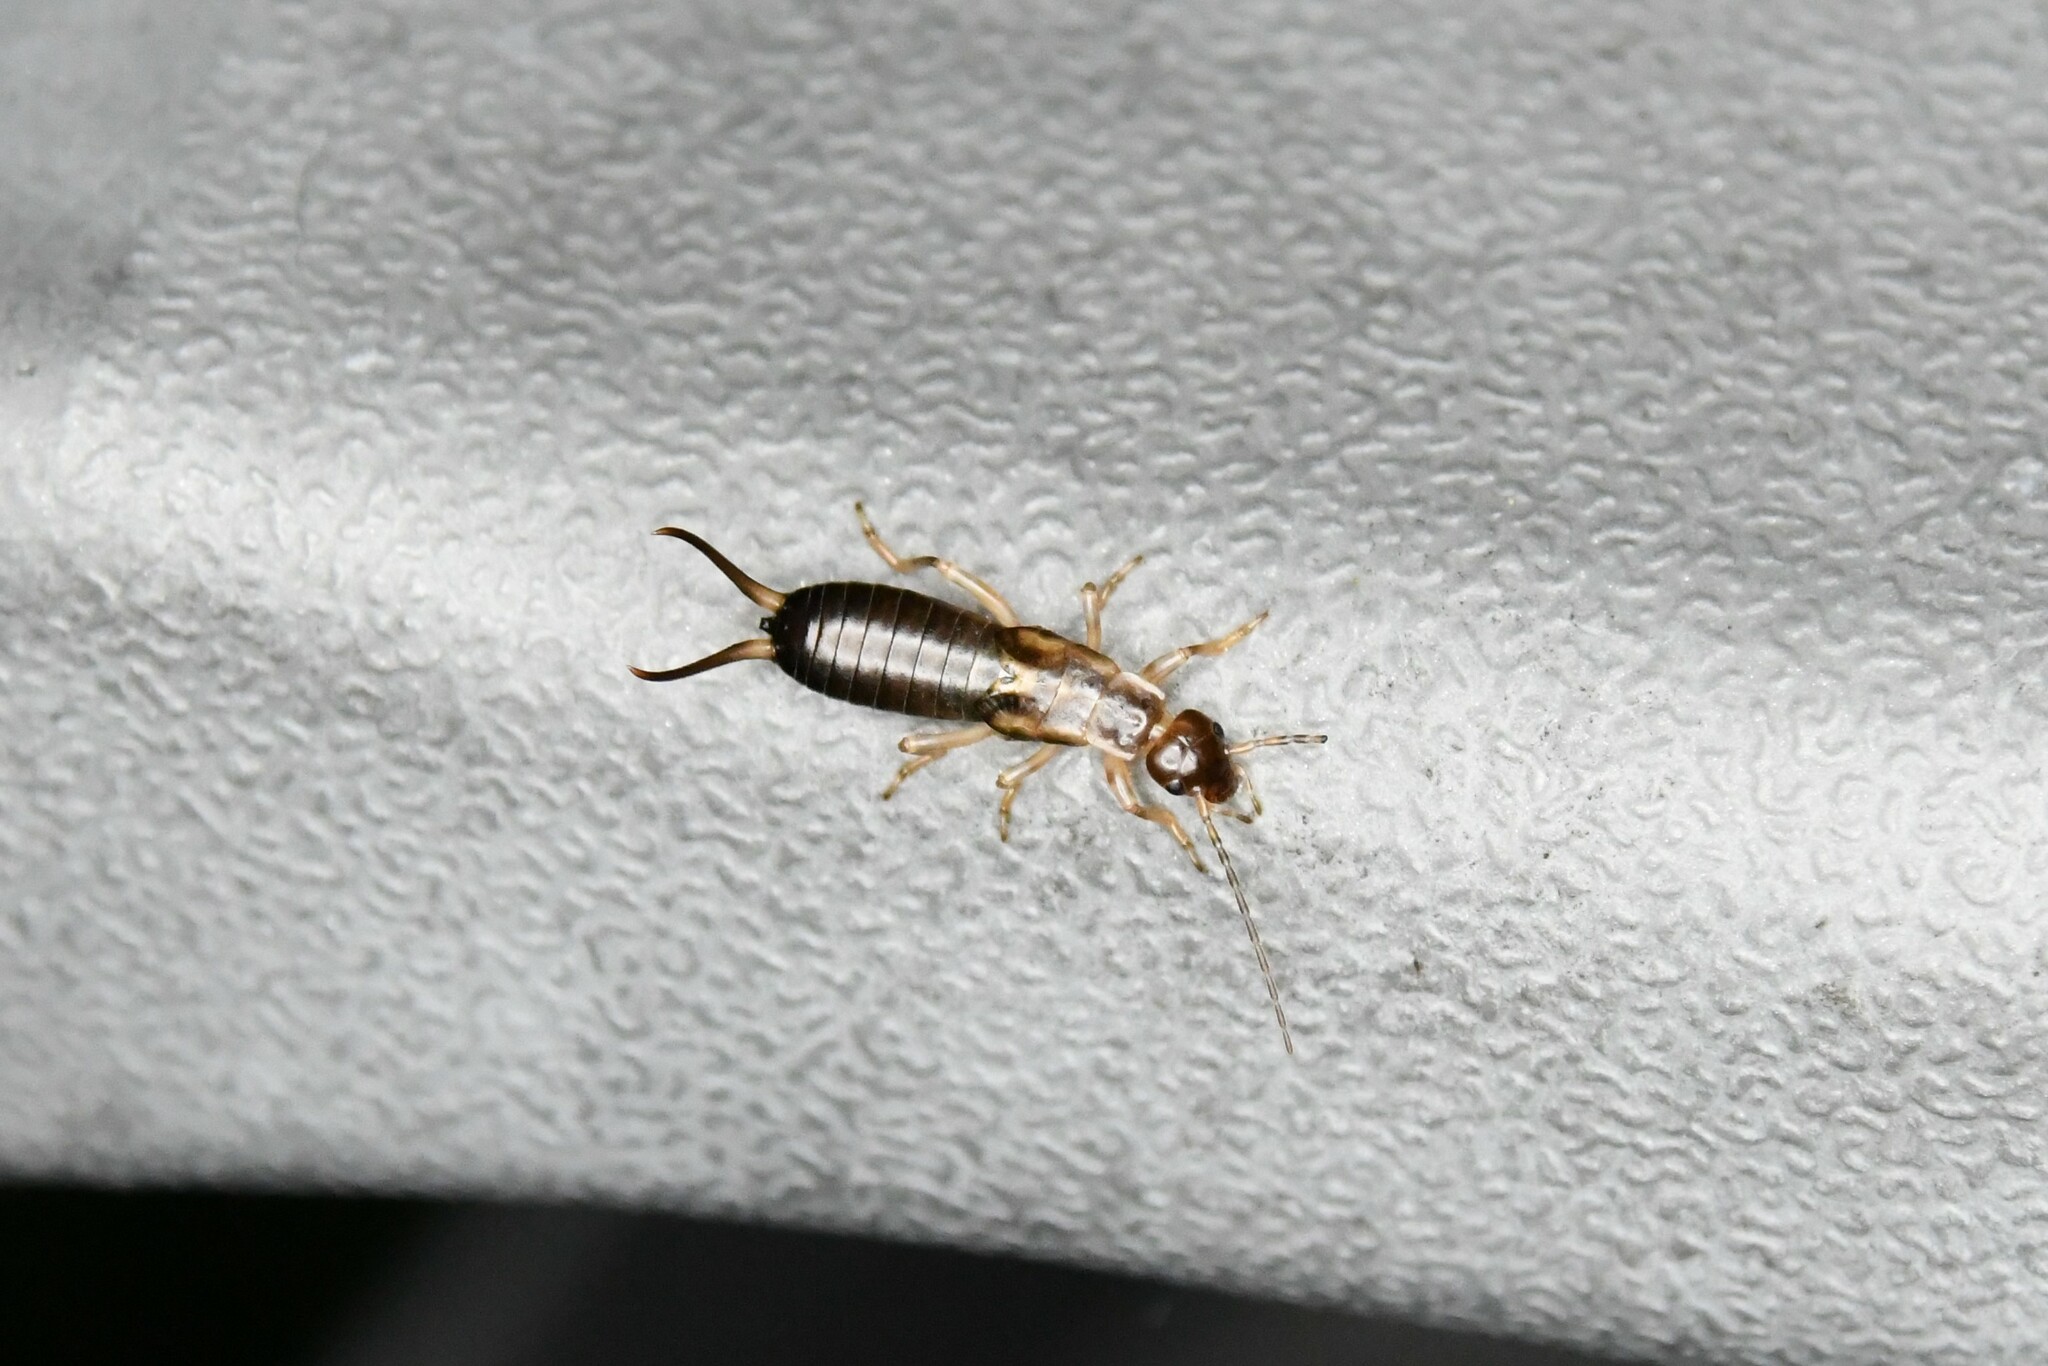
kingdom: Animalia
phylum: Arthropoda
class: Insecta
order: Dermaptera
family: Forficulidae
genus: Forficula
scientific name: Forficula
